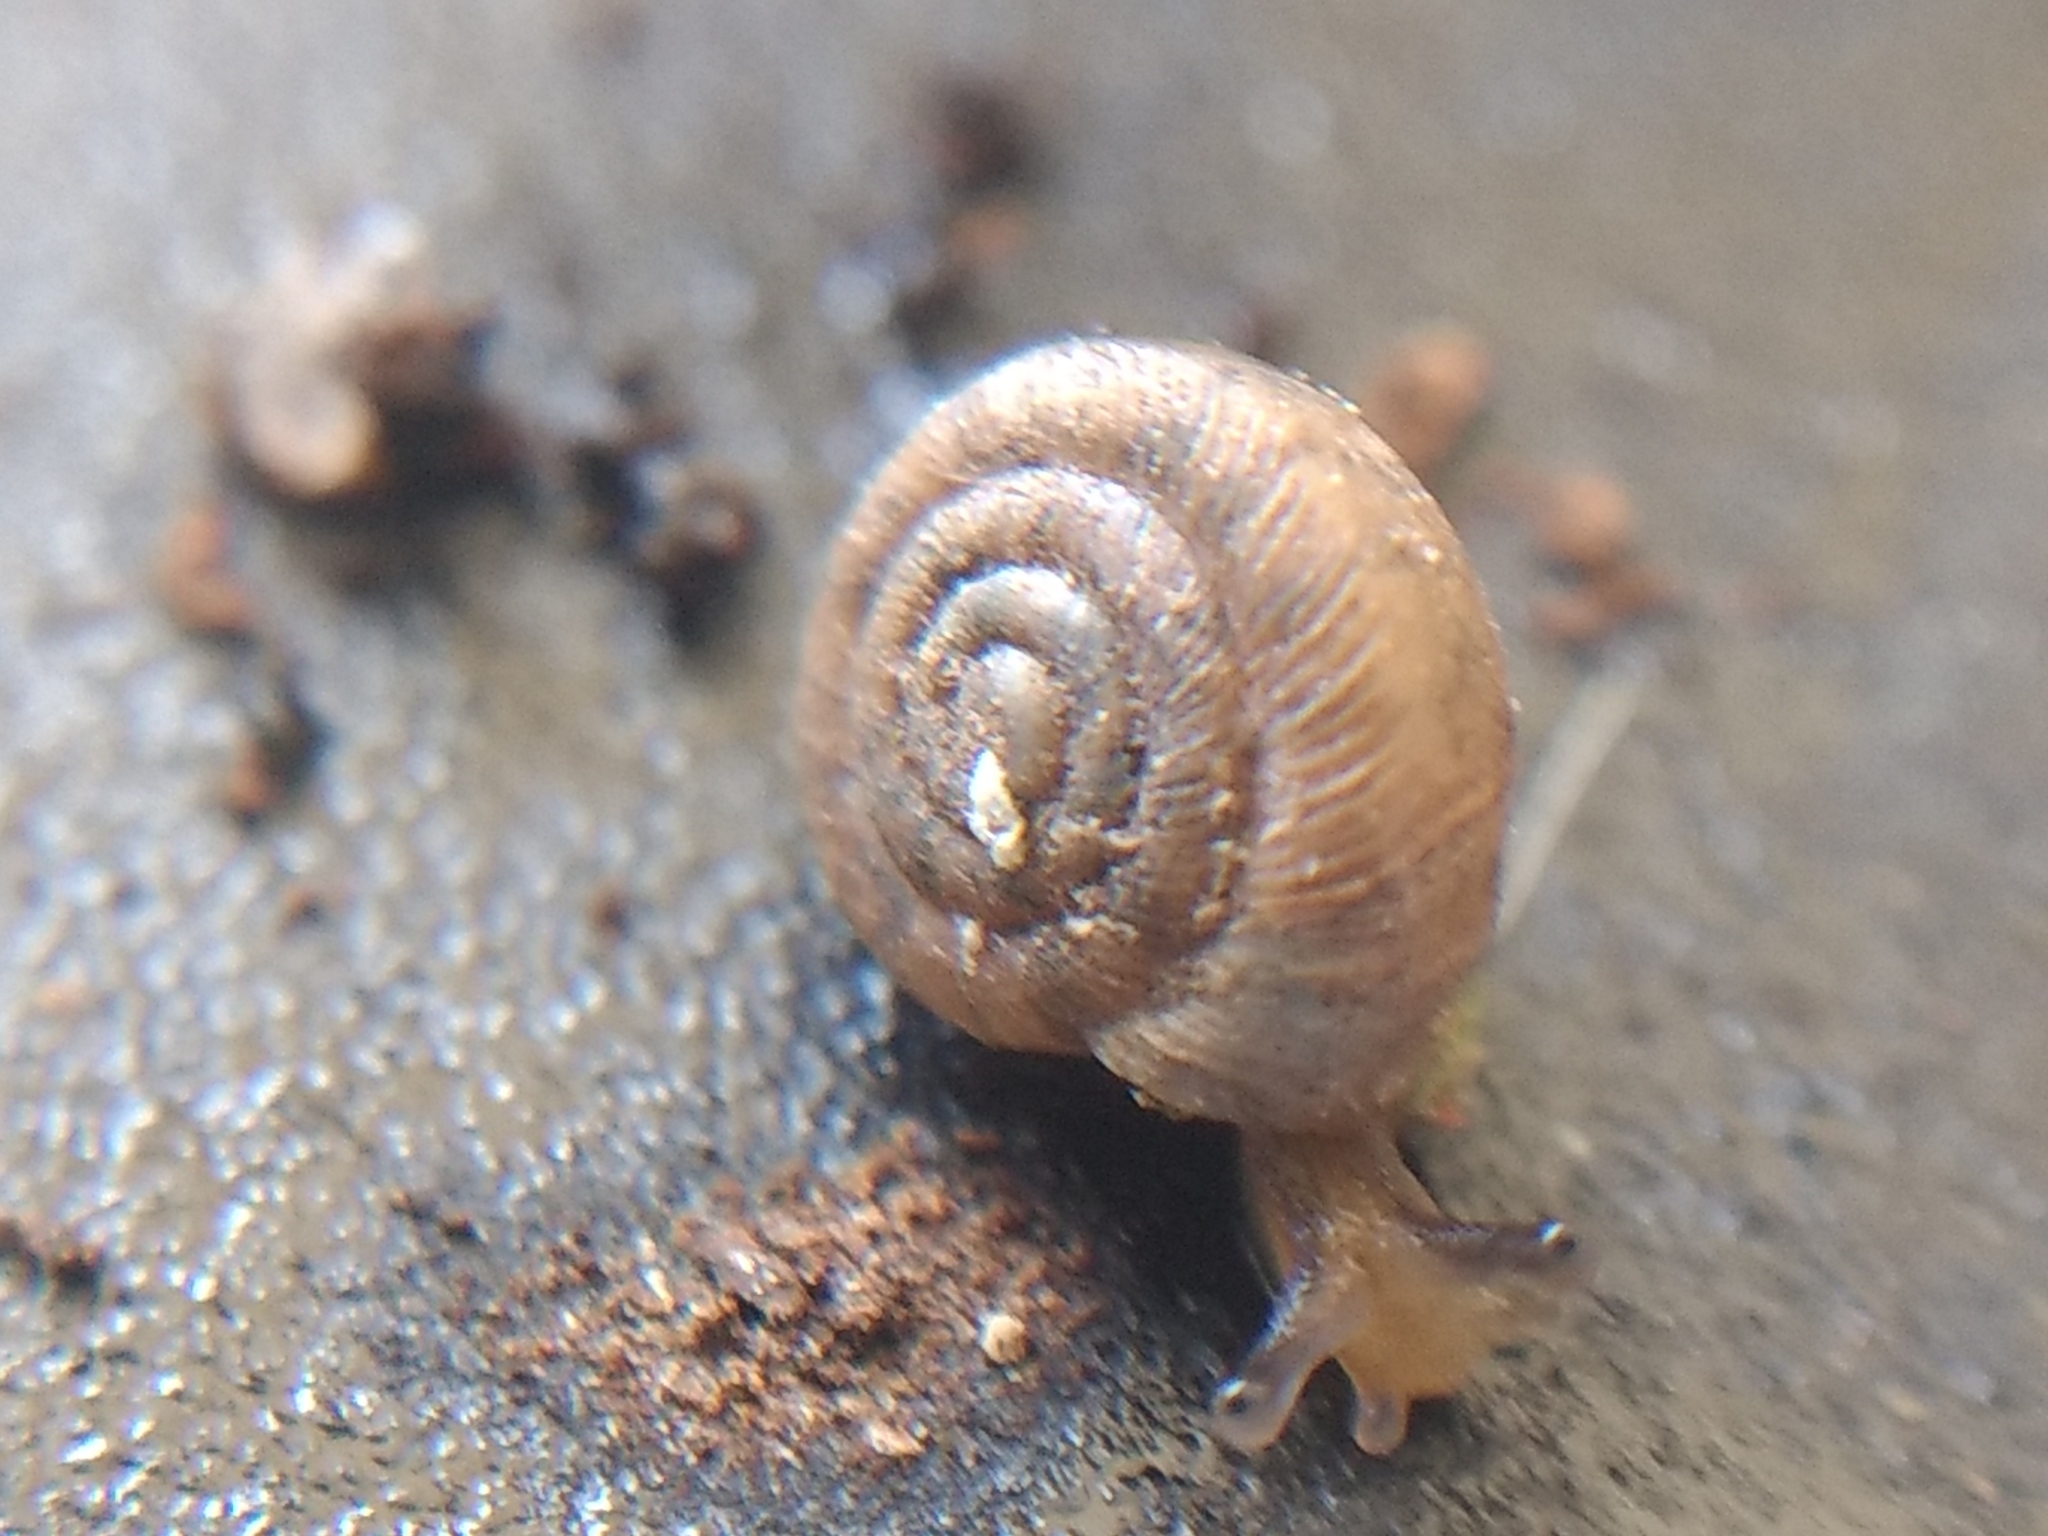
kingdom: Animalia
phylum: Mollusca
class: Gastropoda
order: Stylommatophora
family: Polygyridae
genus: Polygyra
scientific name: Polygyra cereolus
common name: Southern flatcone snail
